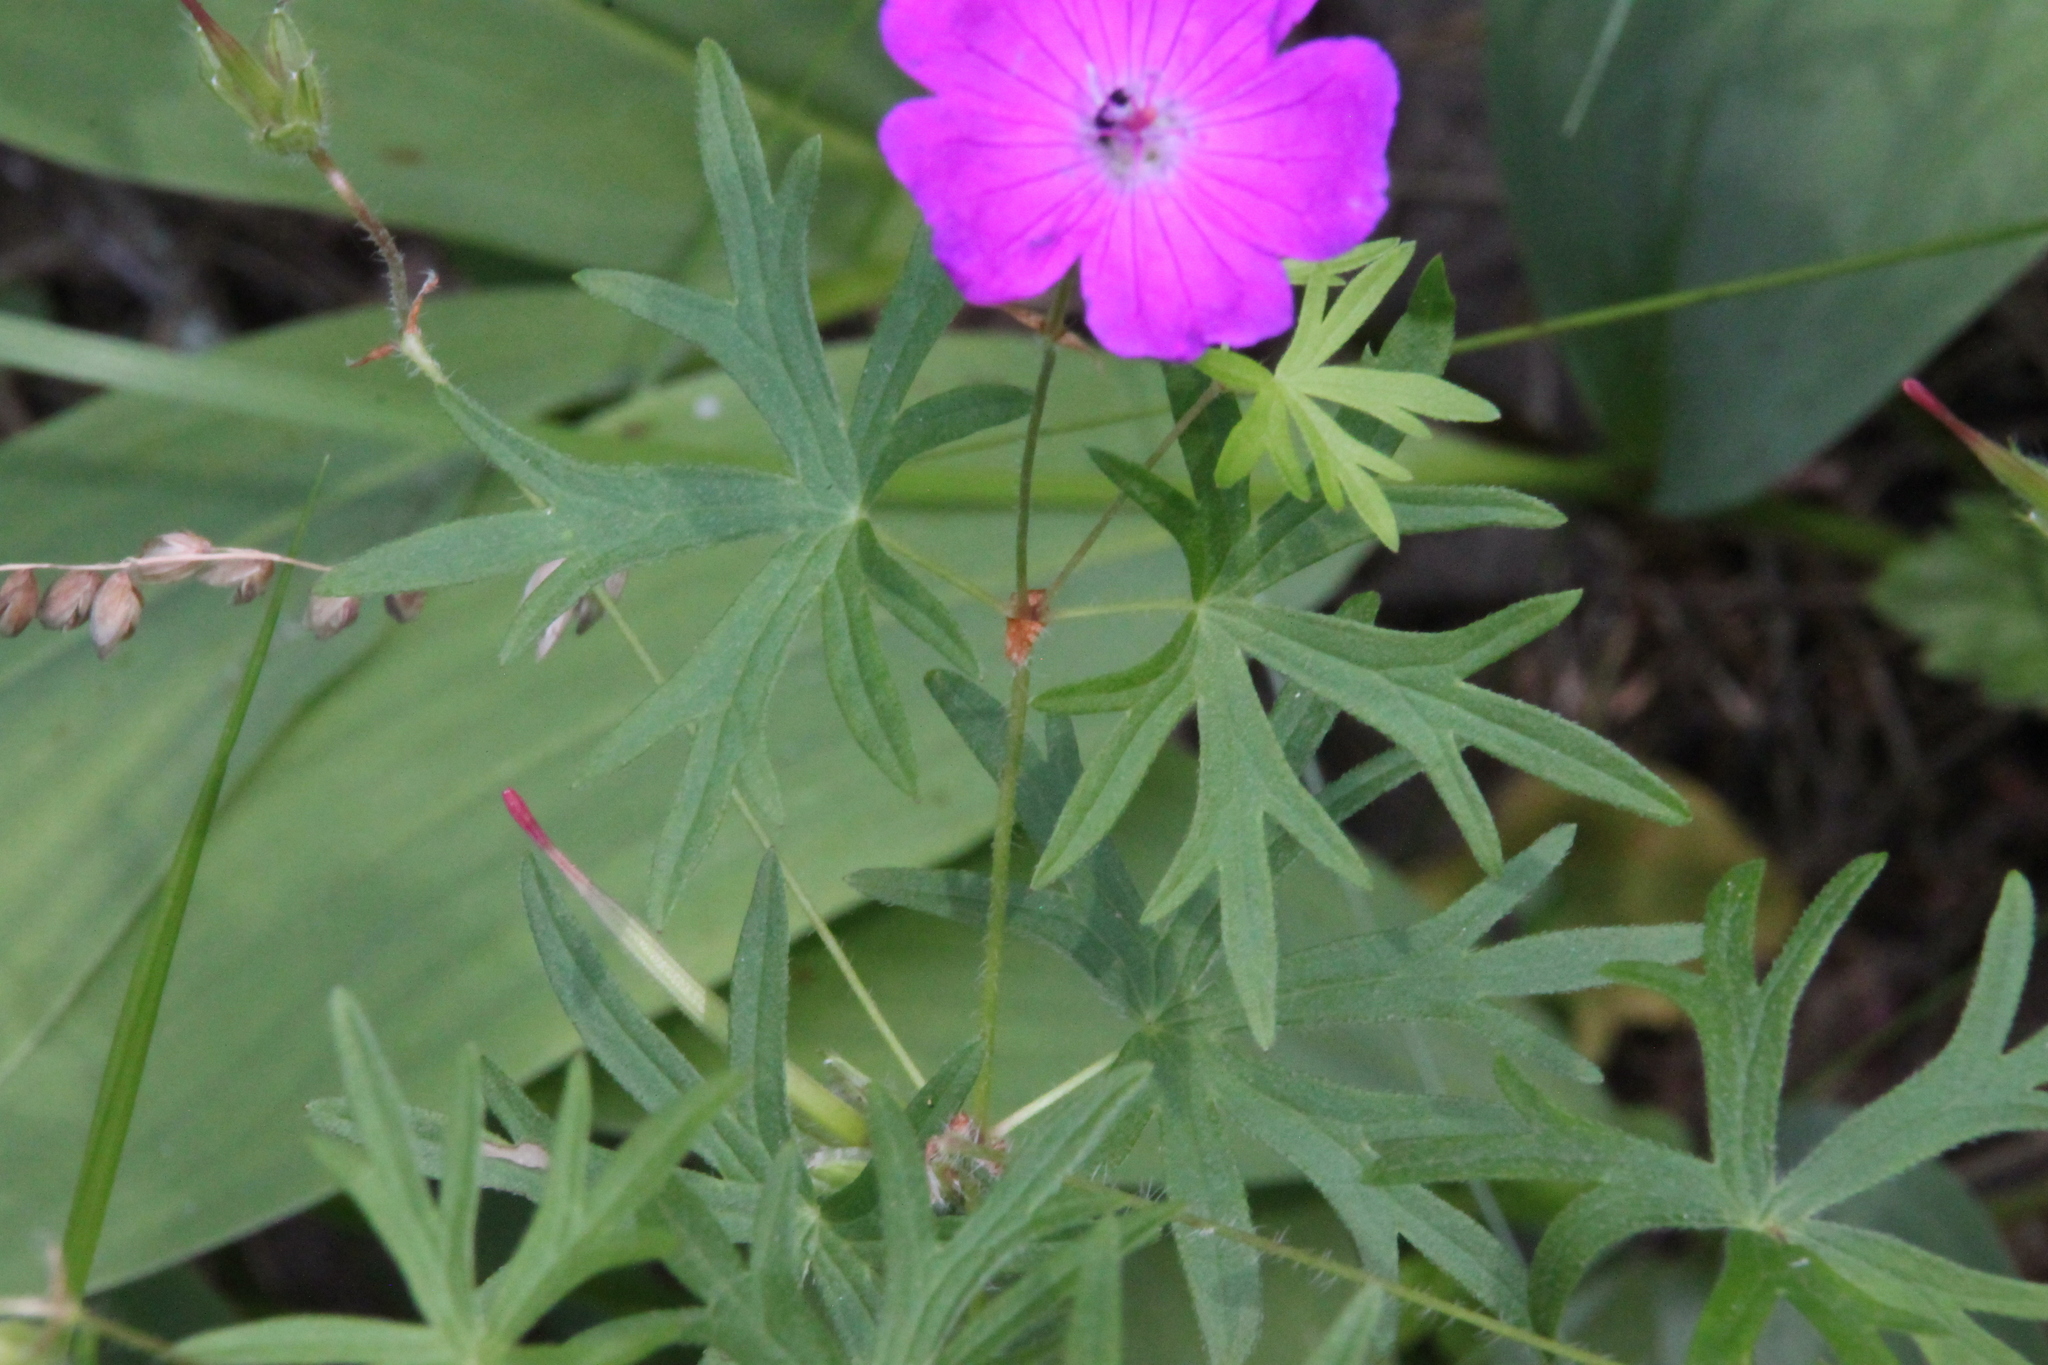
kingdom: Plantae
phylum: Tracheophyta
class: Magnoliopsida
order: Geraniales
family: Geraniaceae
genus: Geranium
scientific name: Geranium sanguineum
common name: Bloody crane's-bill
